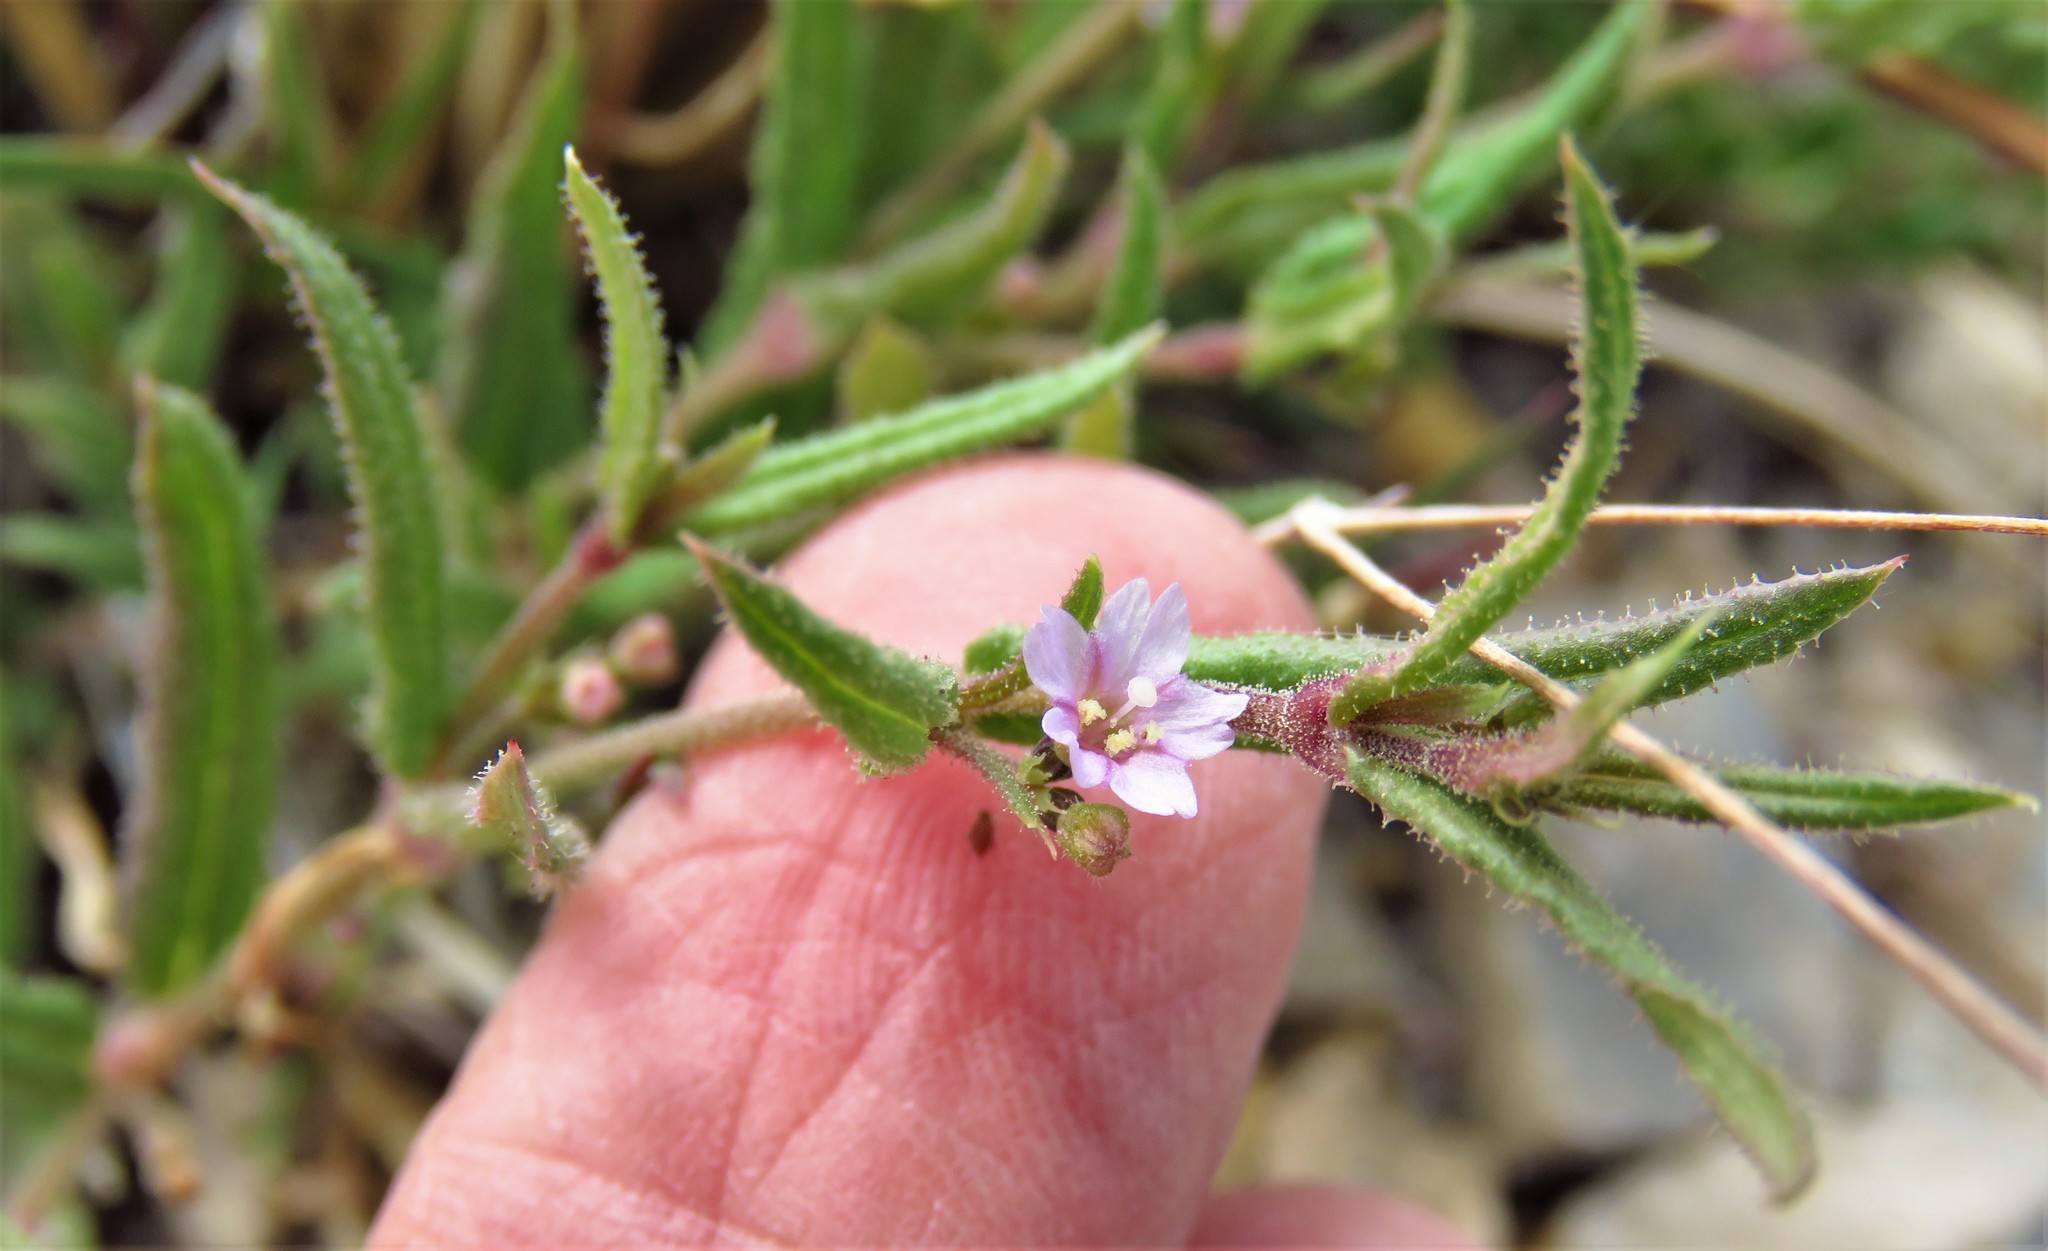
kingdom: Plantae
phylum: Tracheophyta
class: Magnoliopsida
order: Caryophyllales
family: Nyctaginaceae
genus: Boerhavia
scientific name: Boerhavia linearifolia
